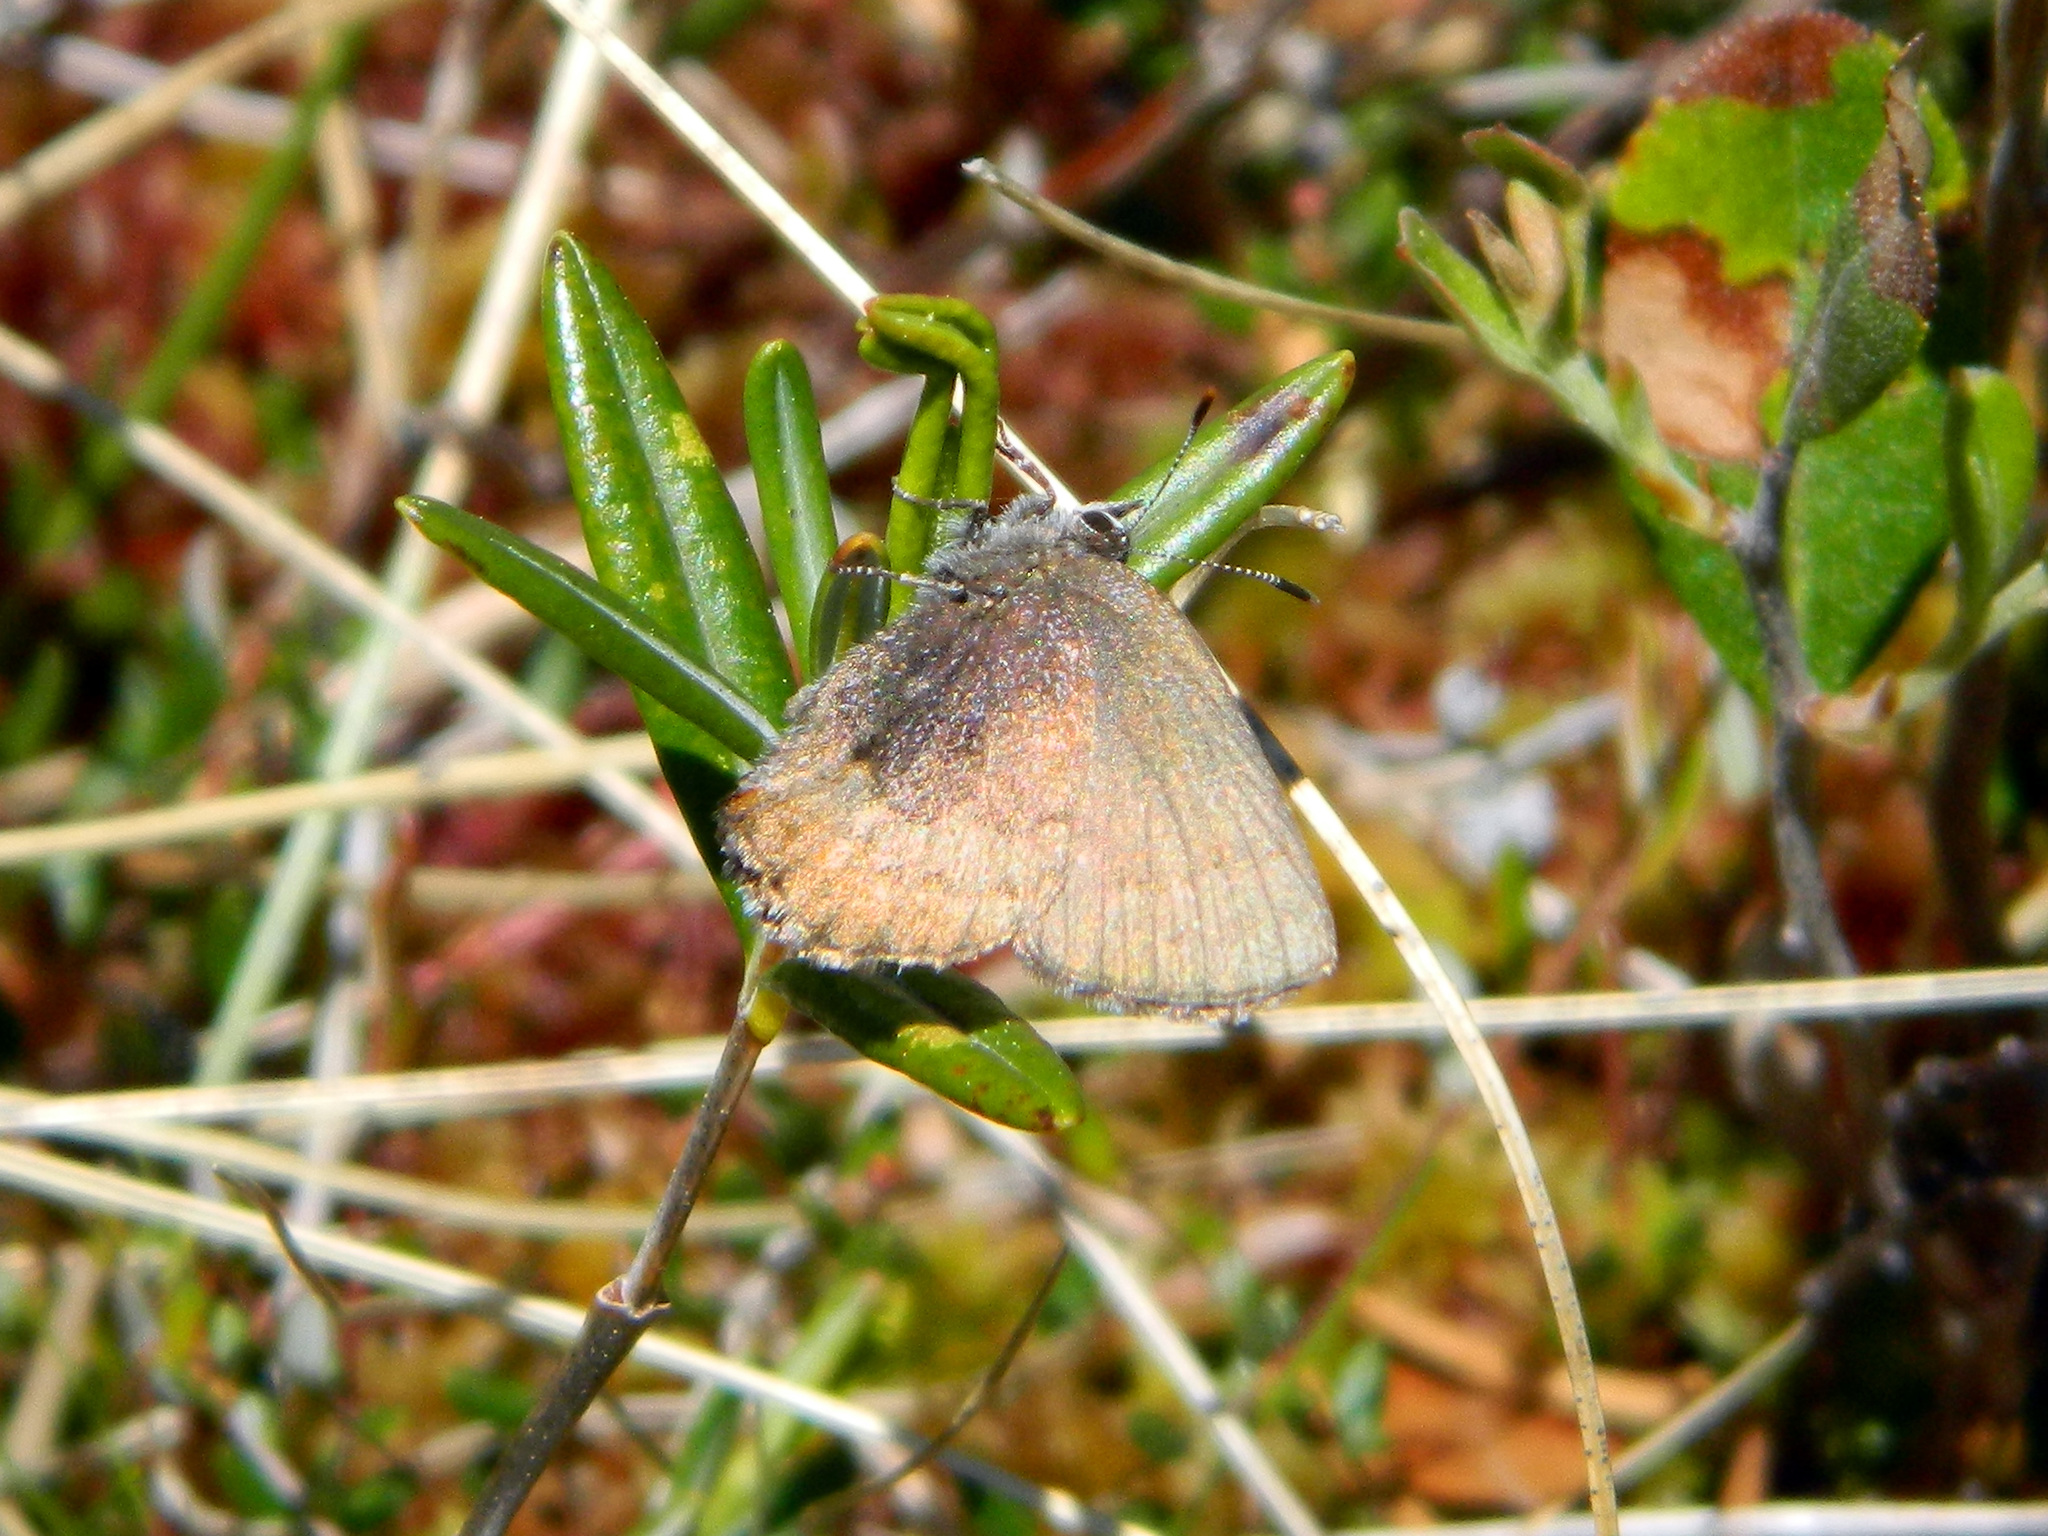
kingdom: Animalia
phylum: Arthropoda
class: Insecta
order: Lepidoptera
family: Lycaenidae
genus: Incisalia
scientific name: Incisalia irioides
